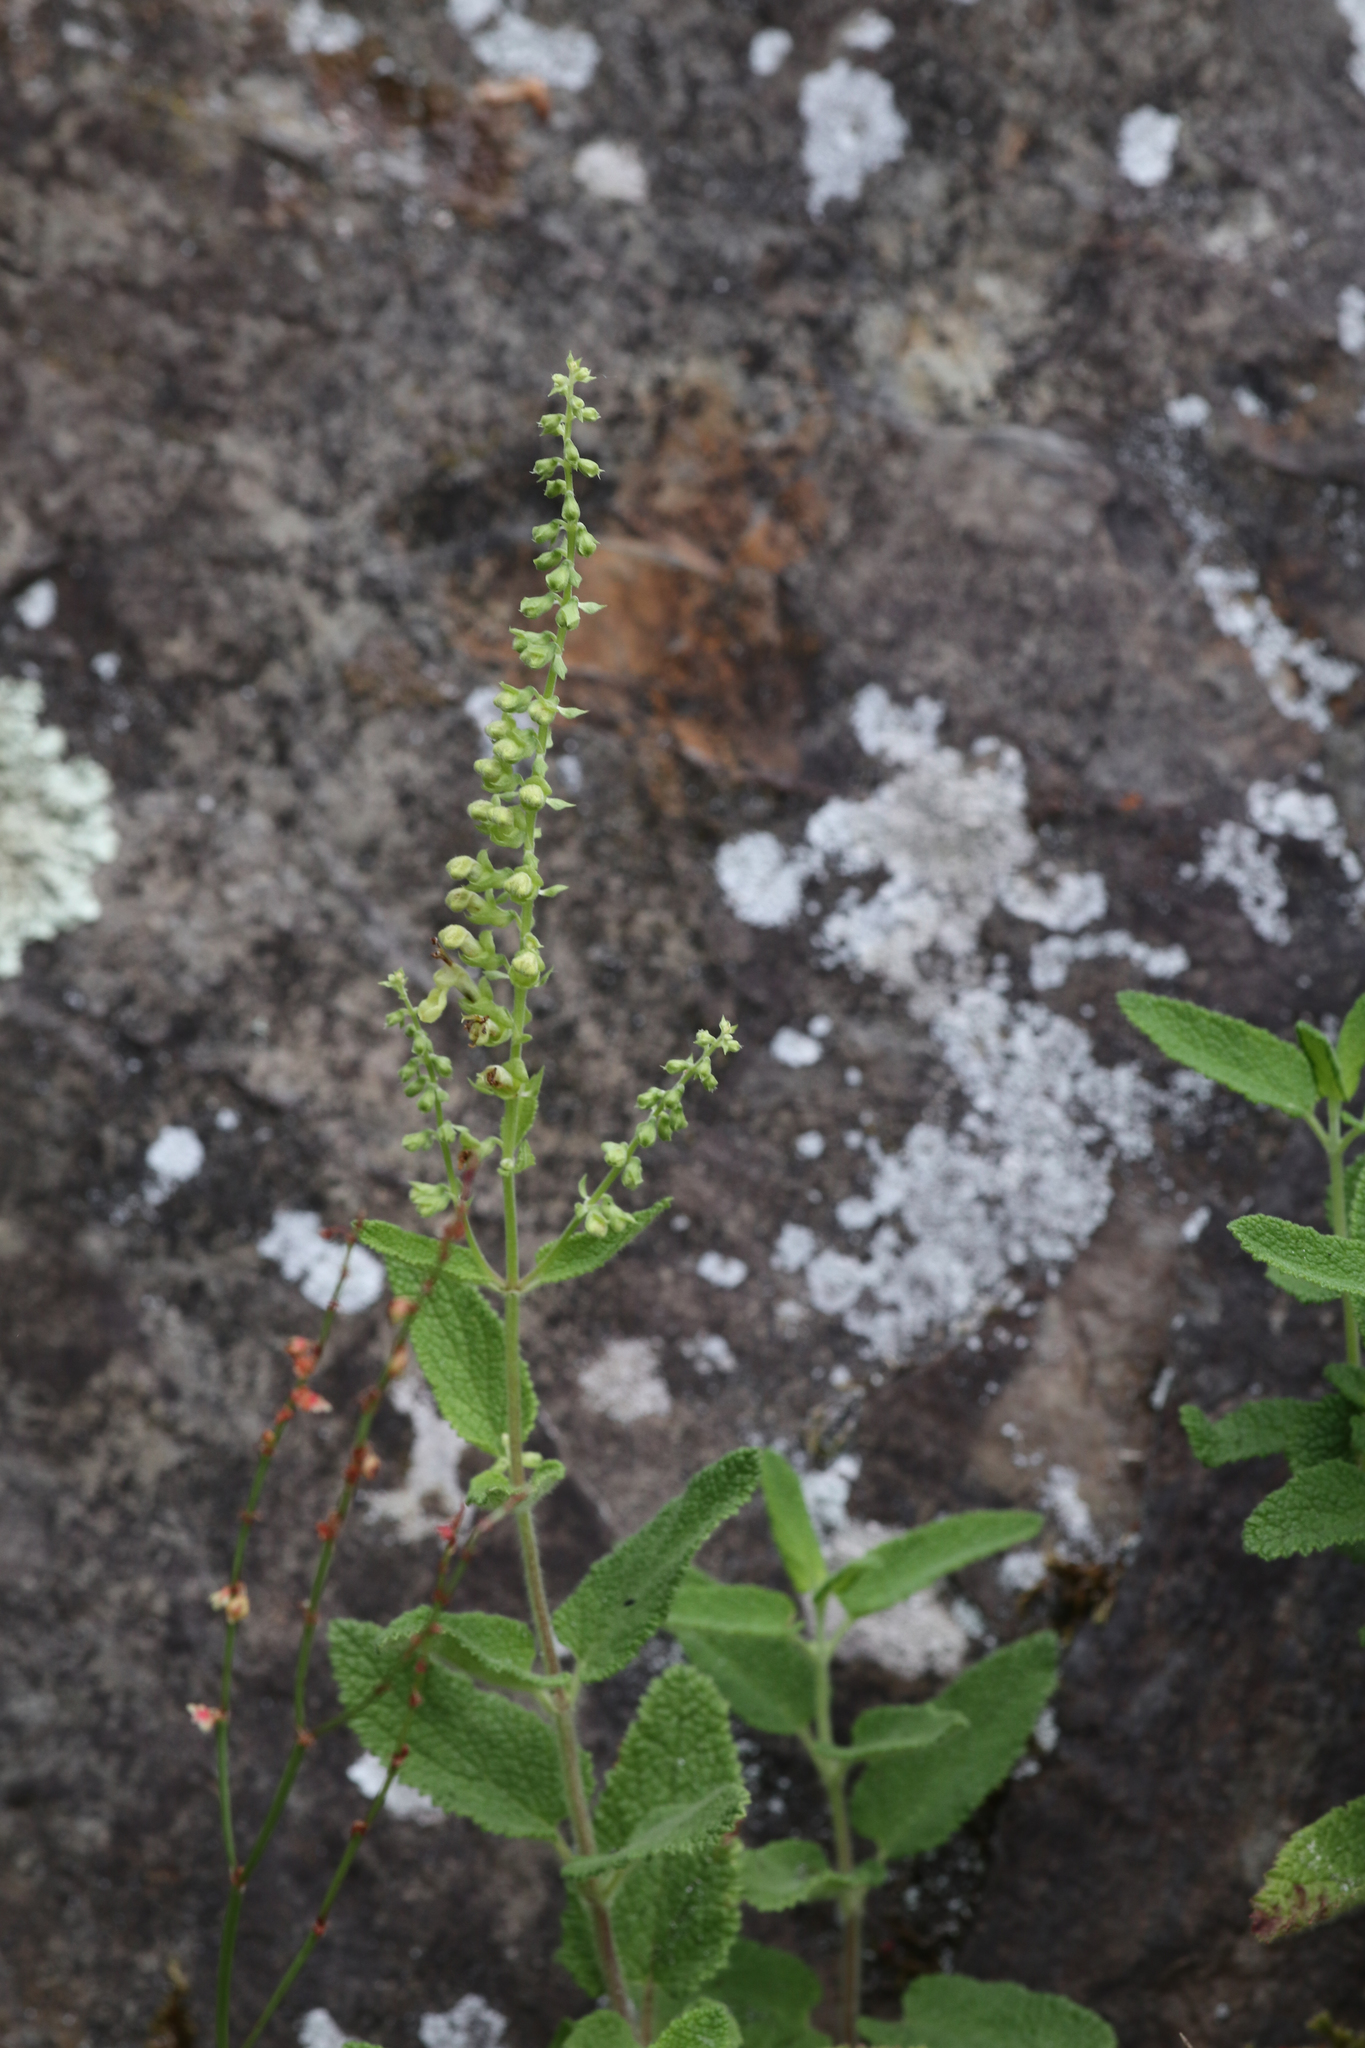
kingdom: Plantae
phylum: Tracheophyta
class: Magnoliopsida
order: Lamiales
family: Lamiaceae
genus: Teucrium
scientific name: Teucrium scorodonia
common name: Woodland germander
